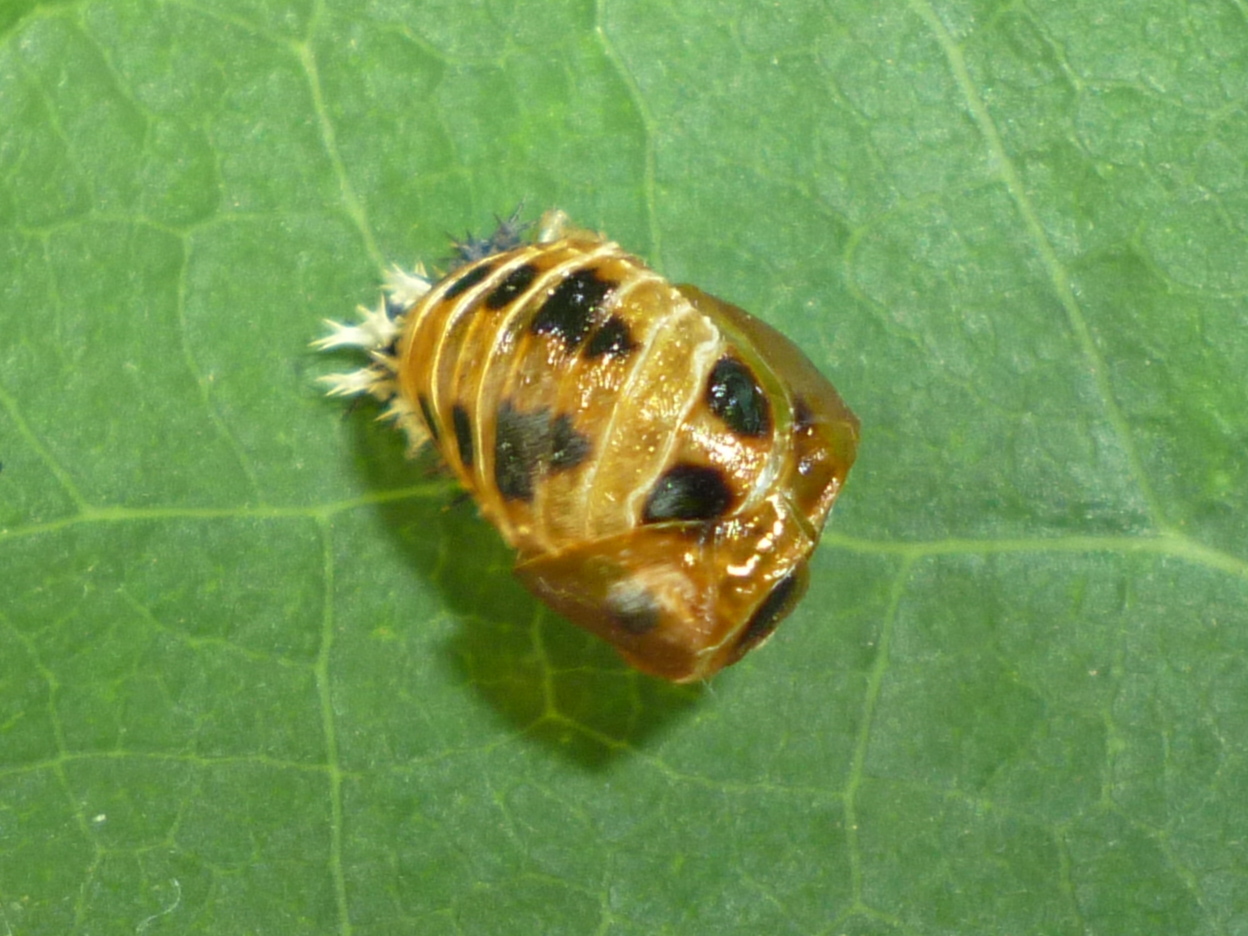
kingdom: Animalia
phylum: Arthropoda
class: Insecta
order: Coleoptera
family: Coccinellidae
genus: Harmonia
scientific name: Harmonia axyridis
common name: Harlequin ladybird
